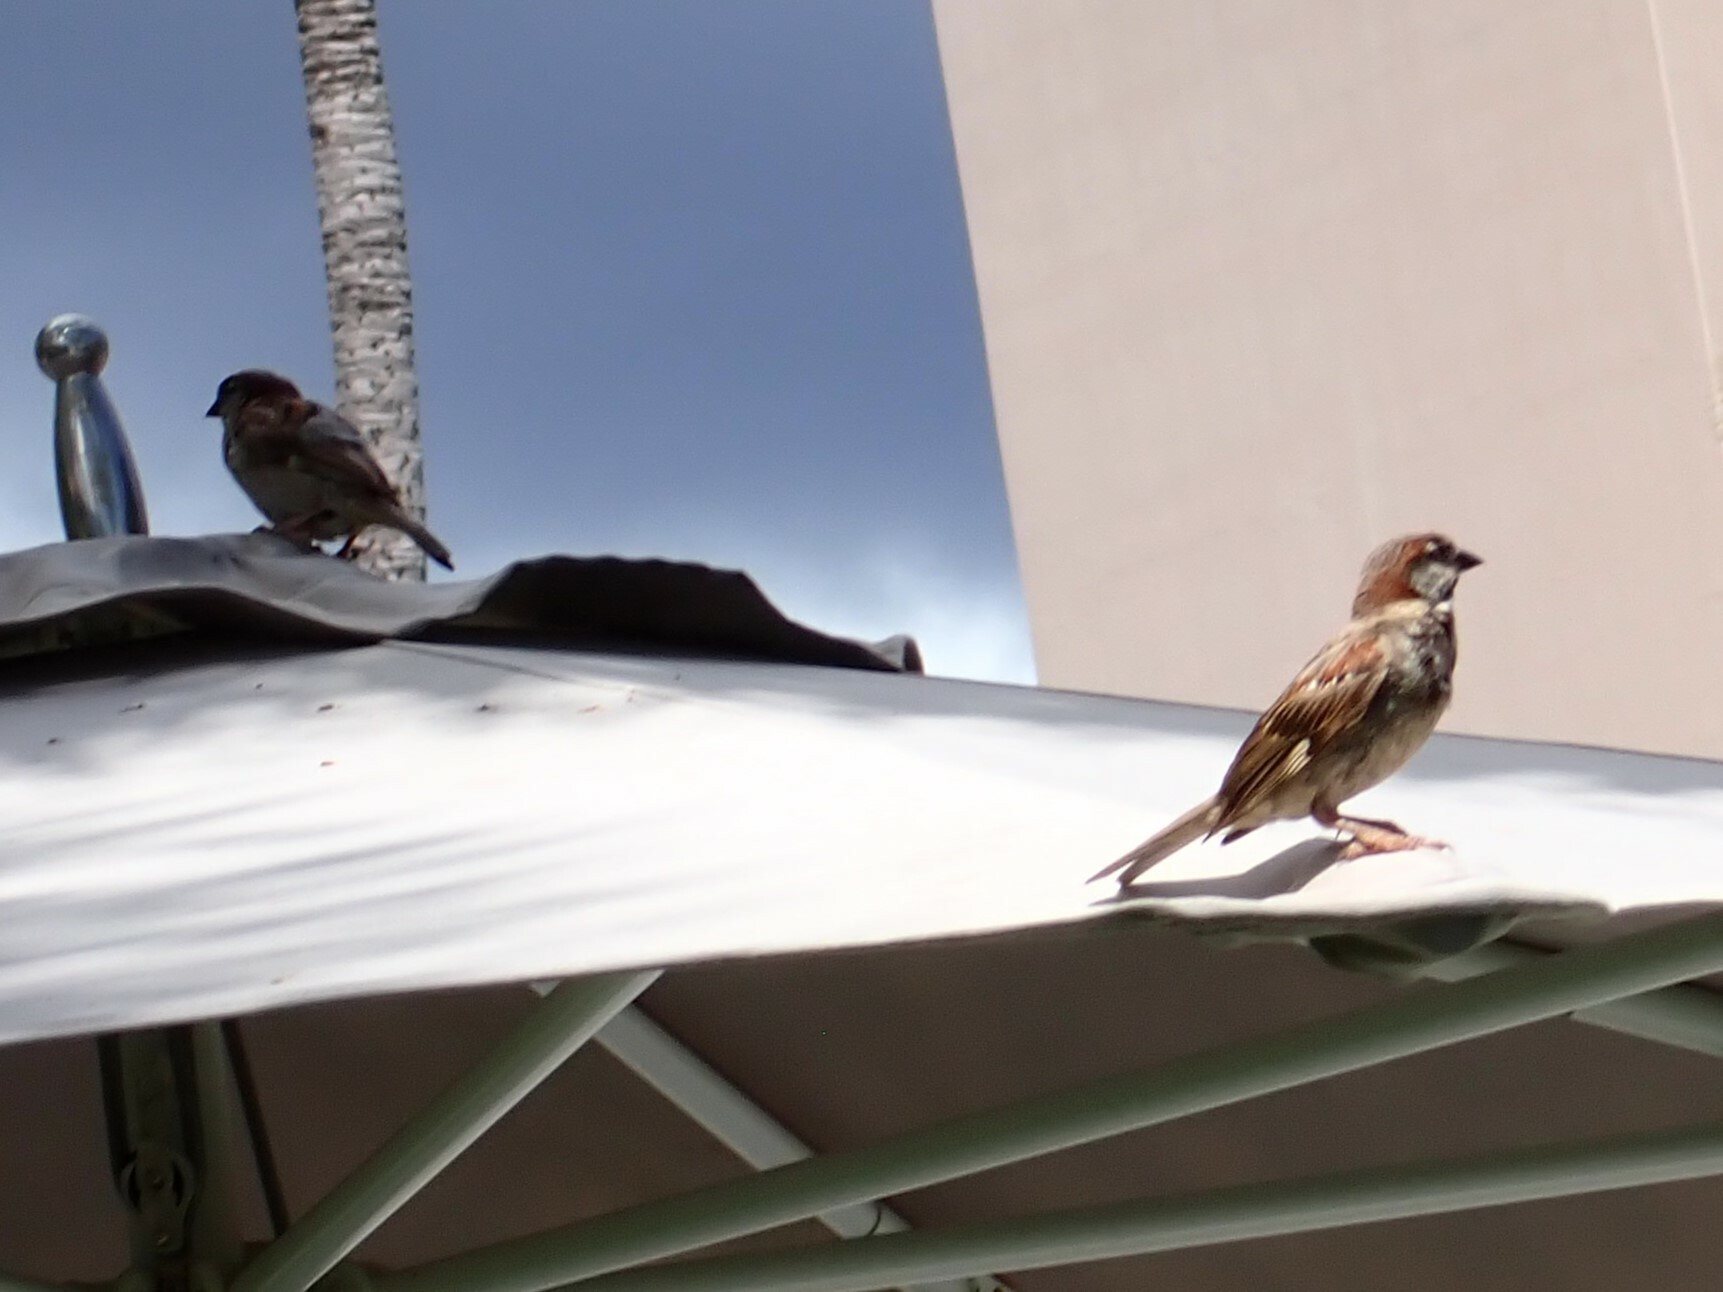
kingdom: Animalia
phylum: Chordata
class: Aves
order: Passeriformes
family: Passeridae
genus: Passer
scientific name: Passer domesticus
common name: House sparrow
